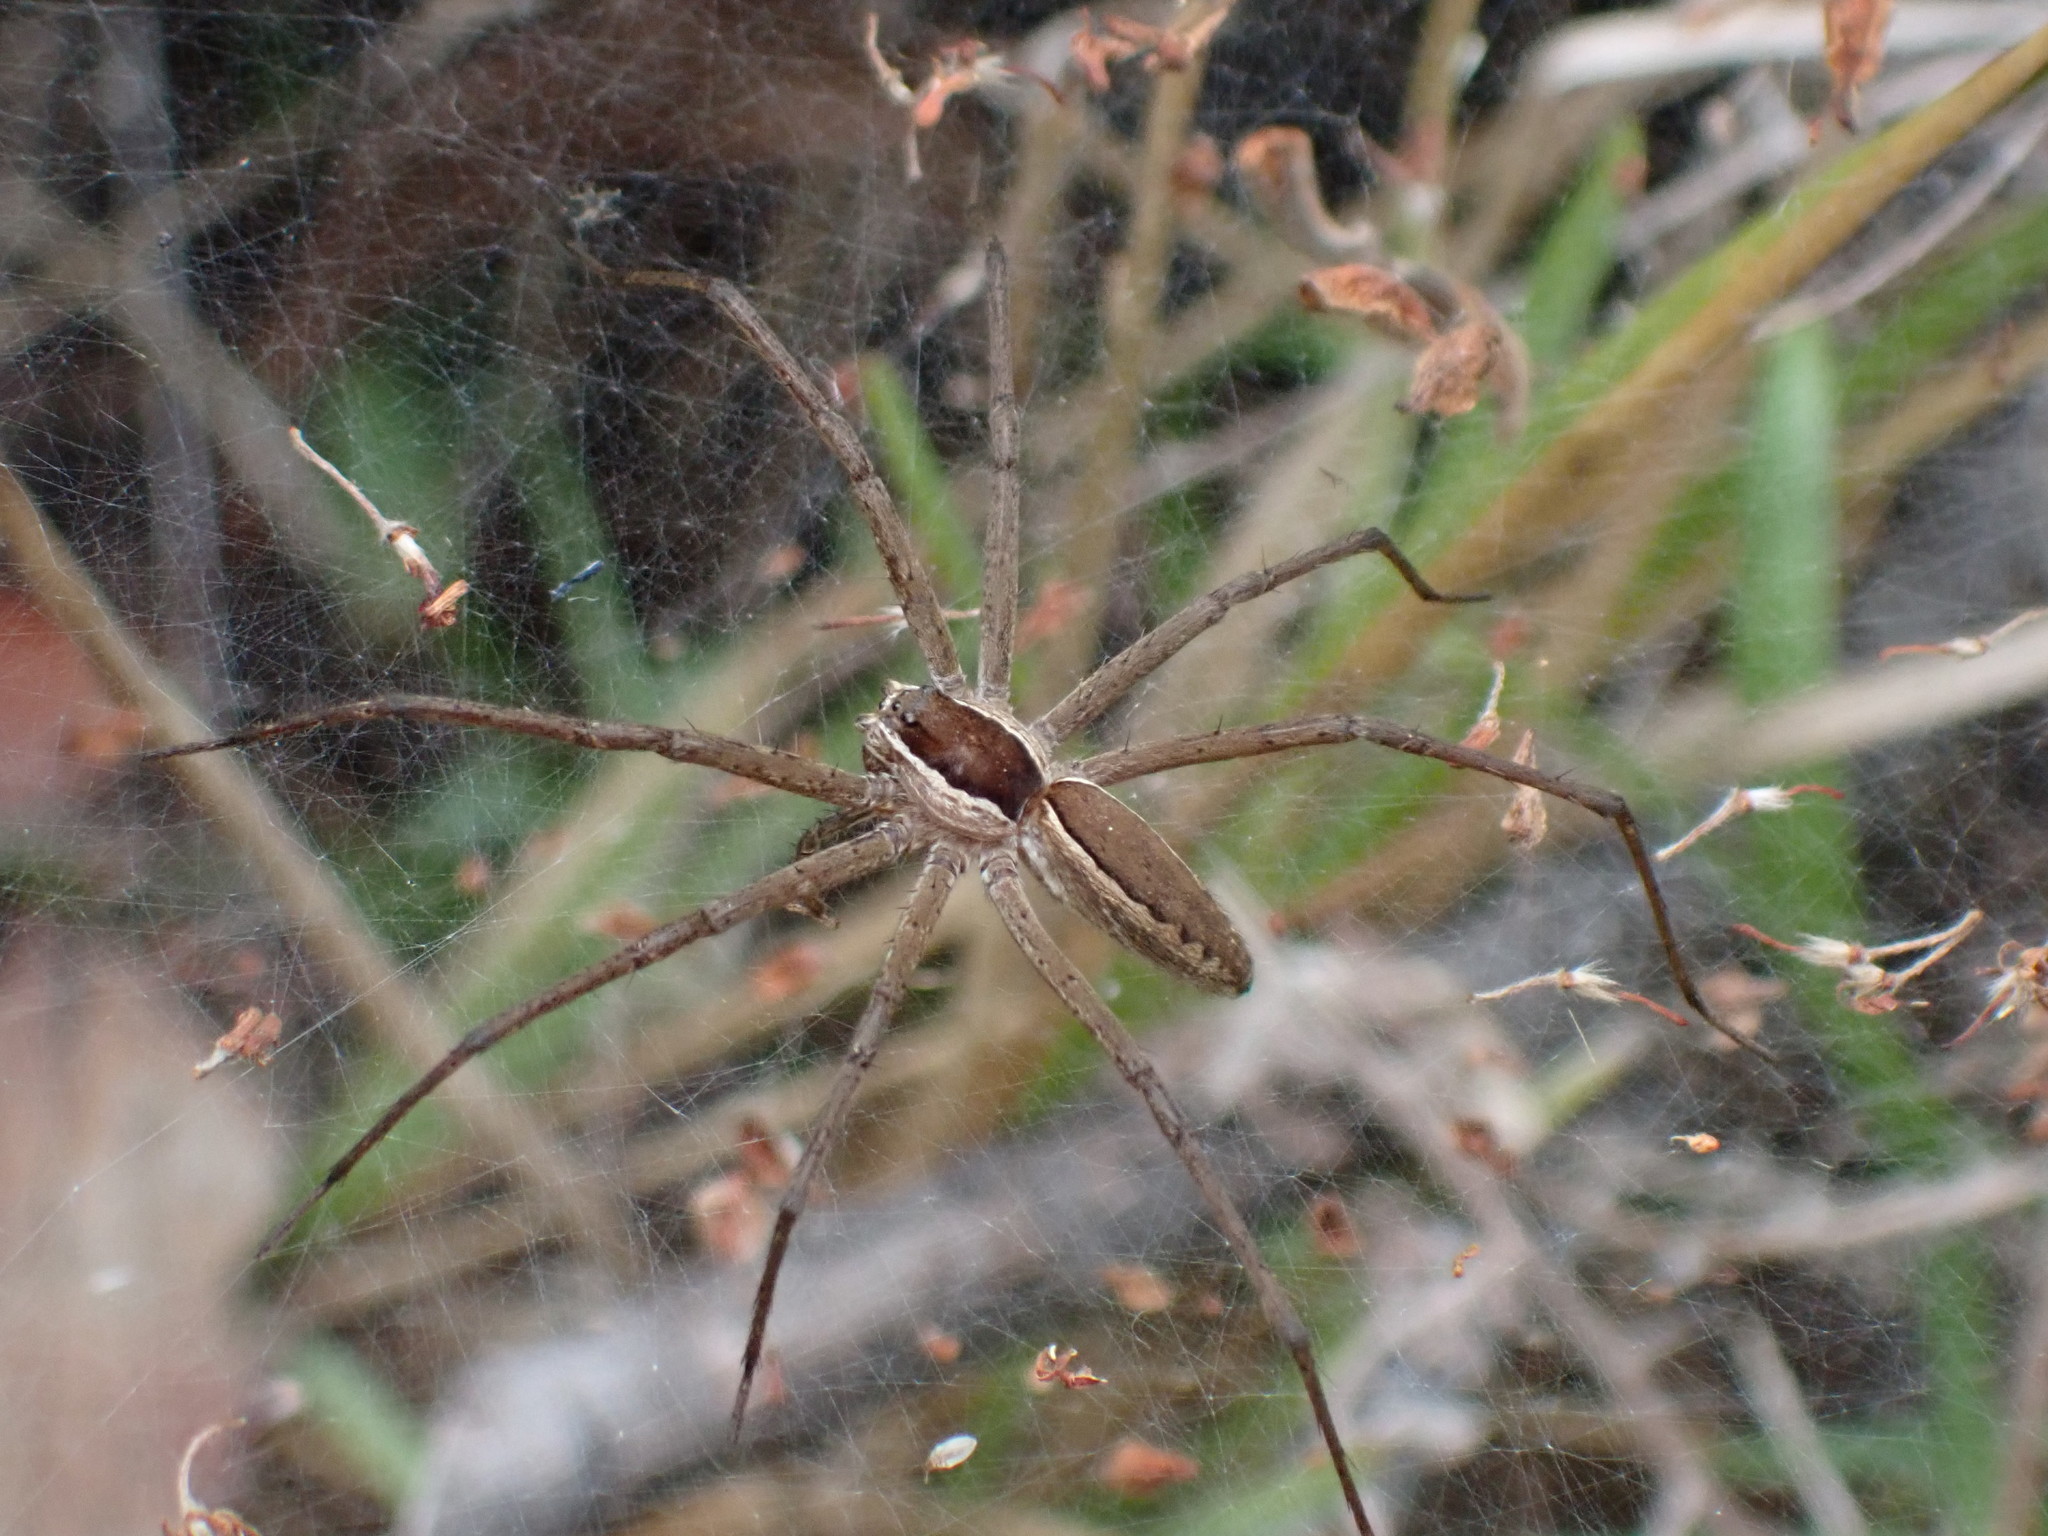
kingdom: Animalia
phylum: Arthropoda
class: Arachnida
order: Araneae
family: Pisauridae
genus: Euprosthenopsis
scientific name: Euprosthenopsis pulchella
